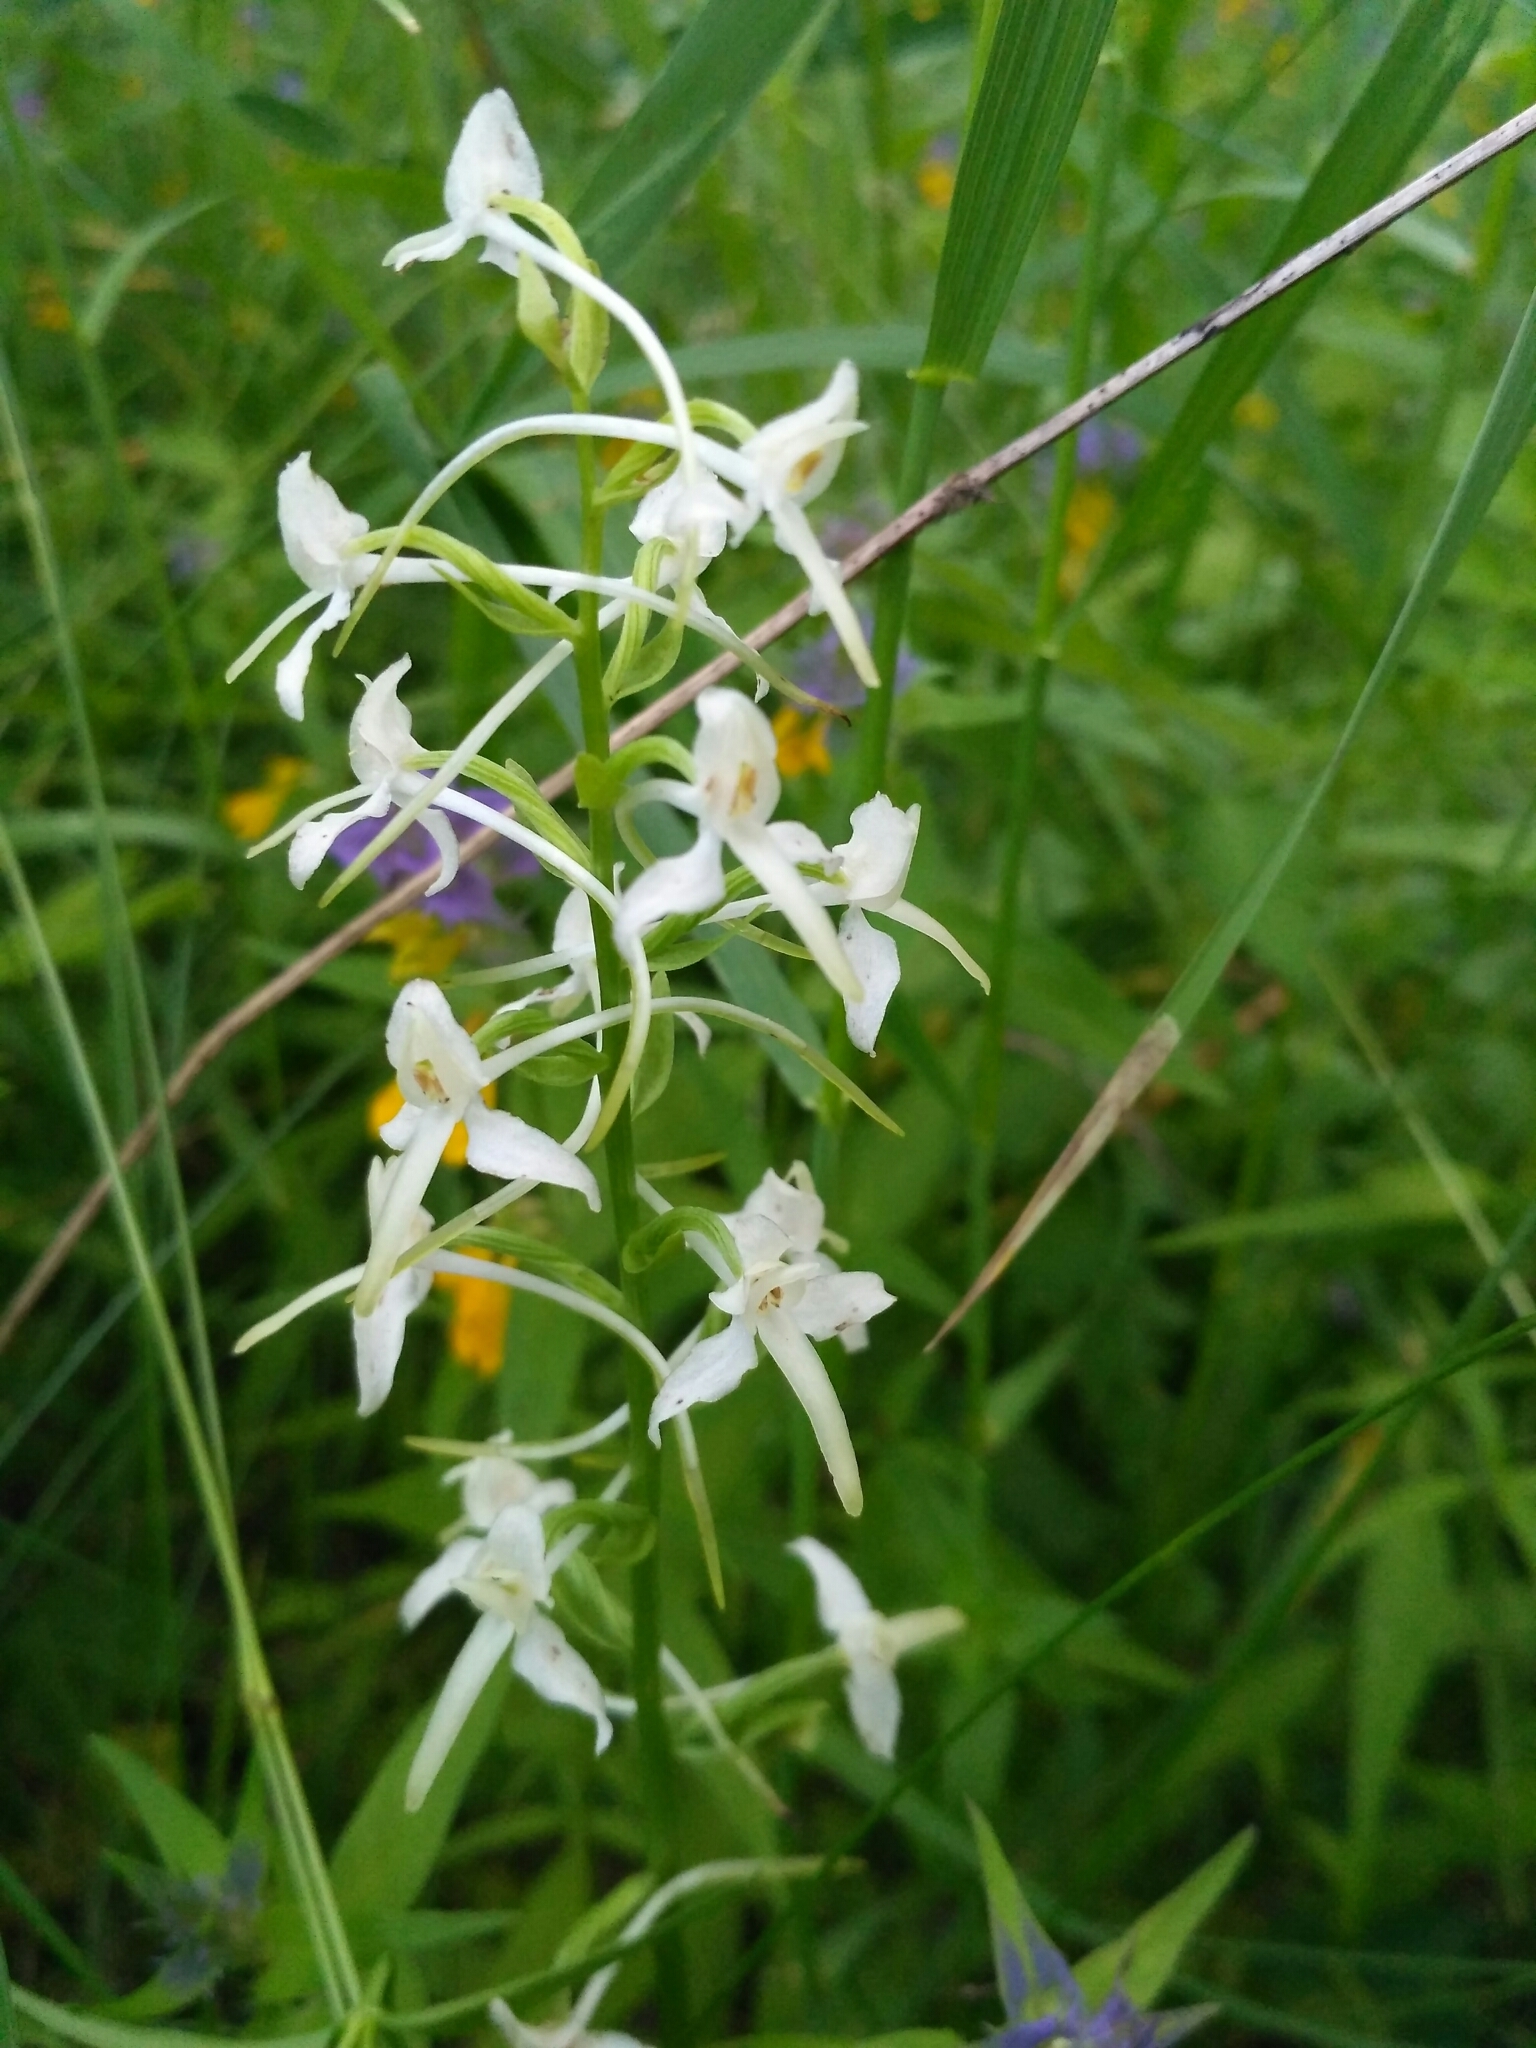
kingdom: Plantae
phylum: Tracheophyta
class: Liliopsida
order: Asparagales
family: Orchidaceae
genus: Platanthera
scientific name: Platanthera bifolia
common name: Lesser butterfly-orchid
